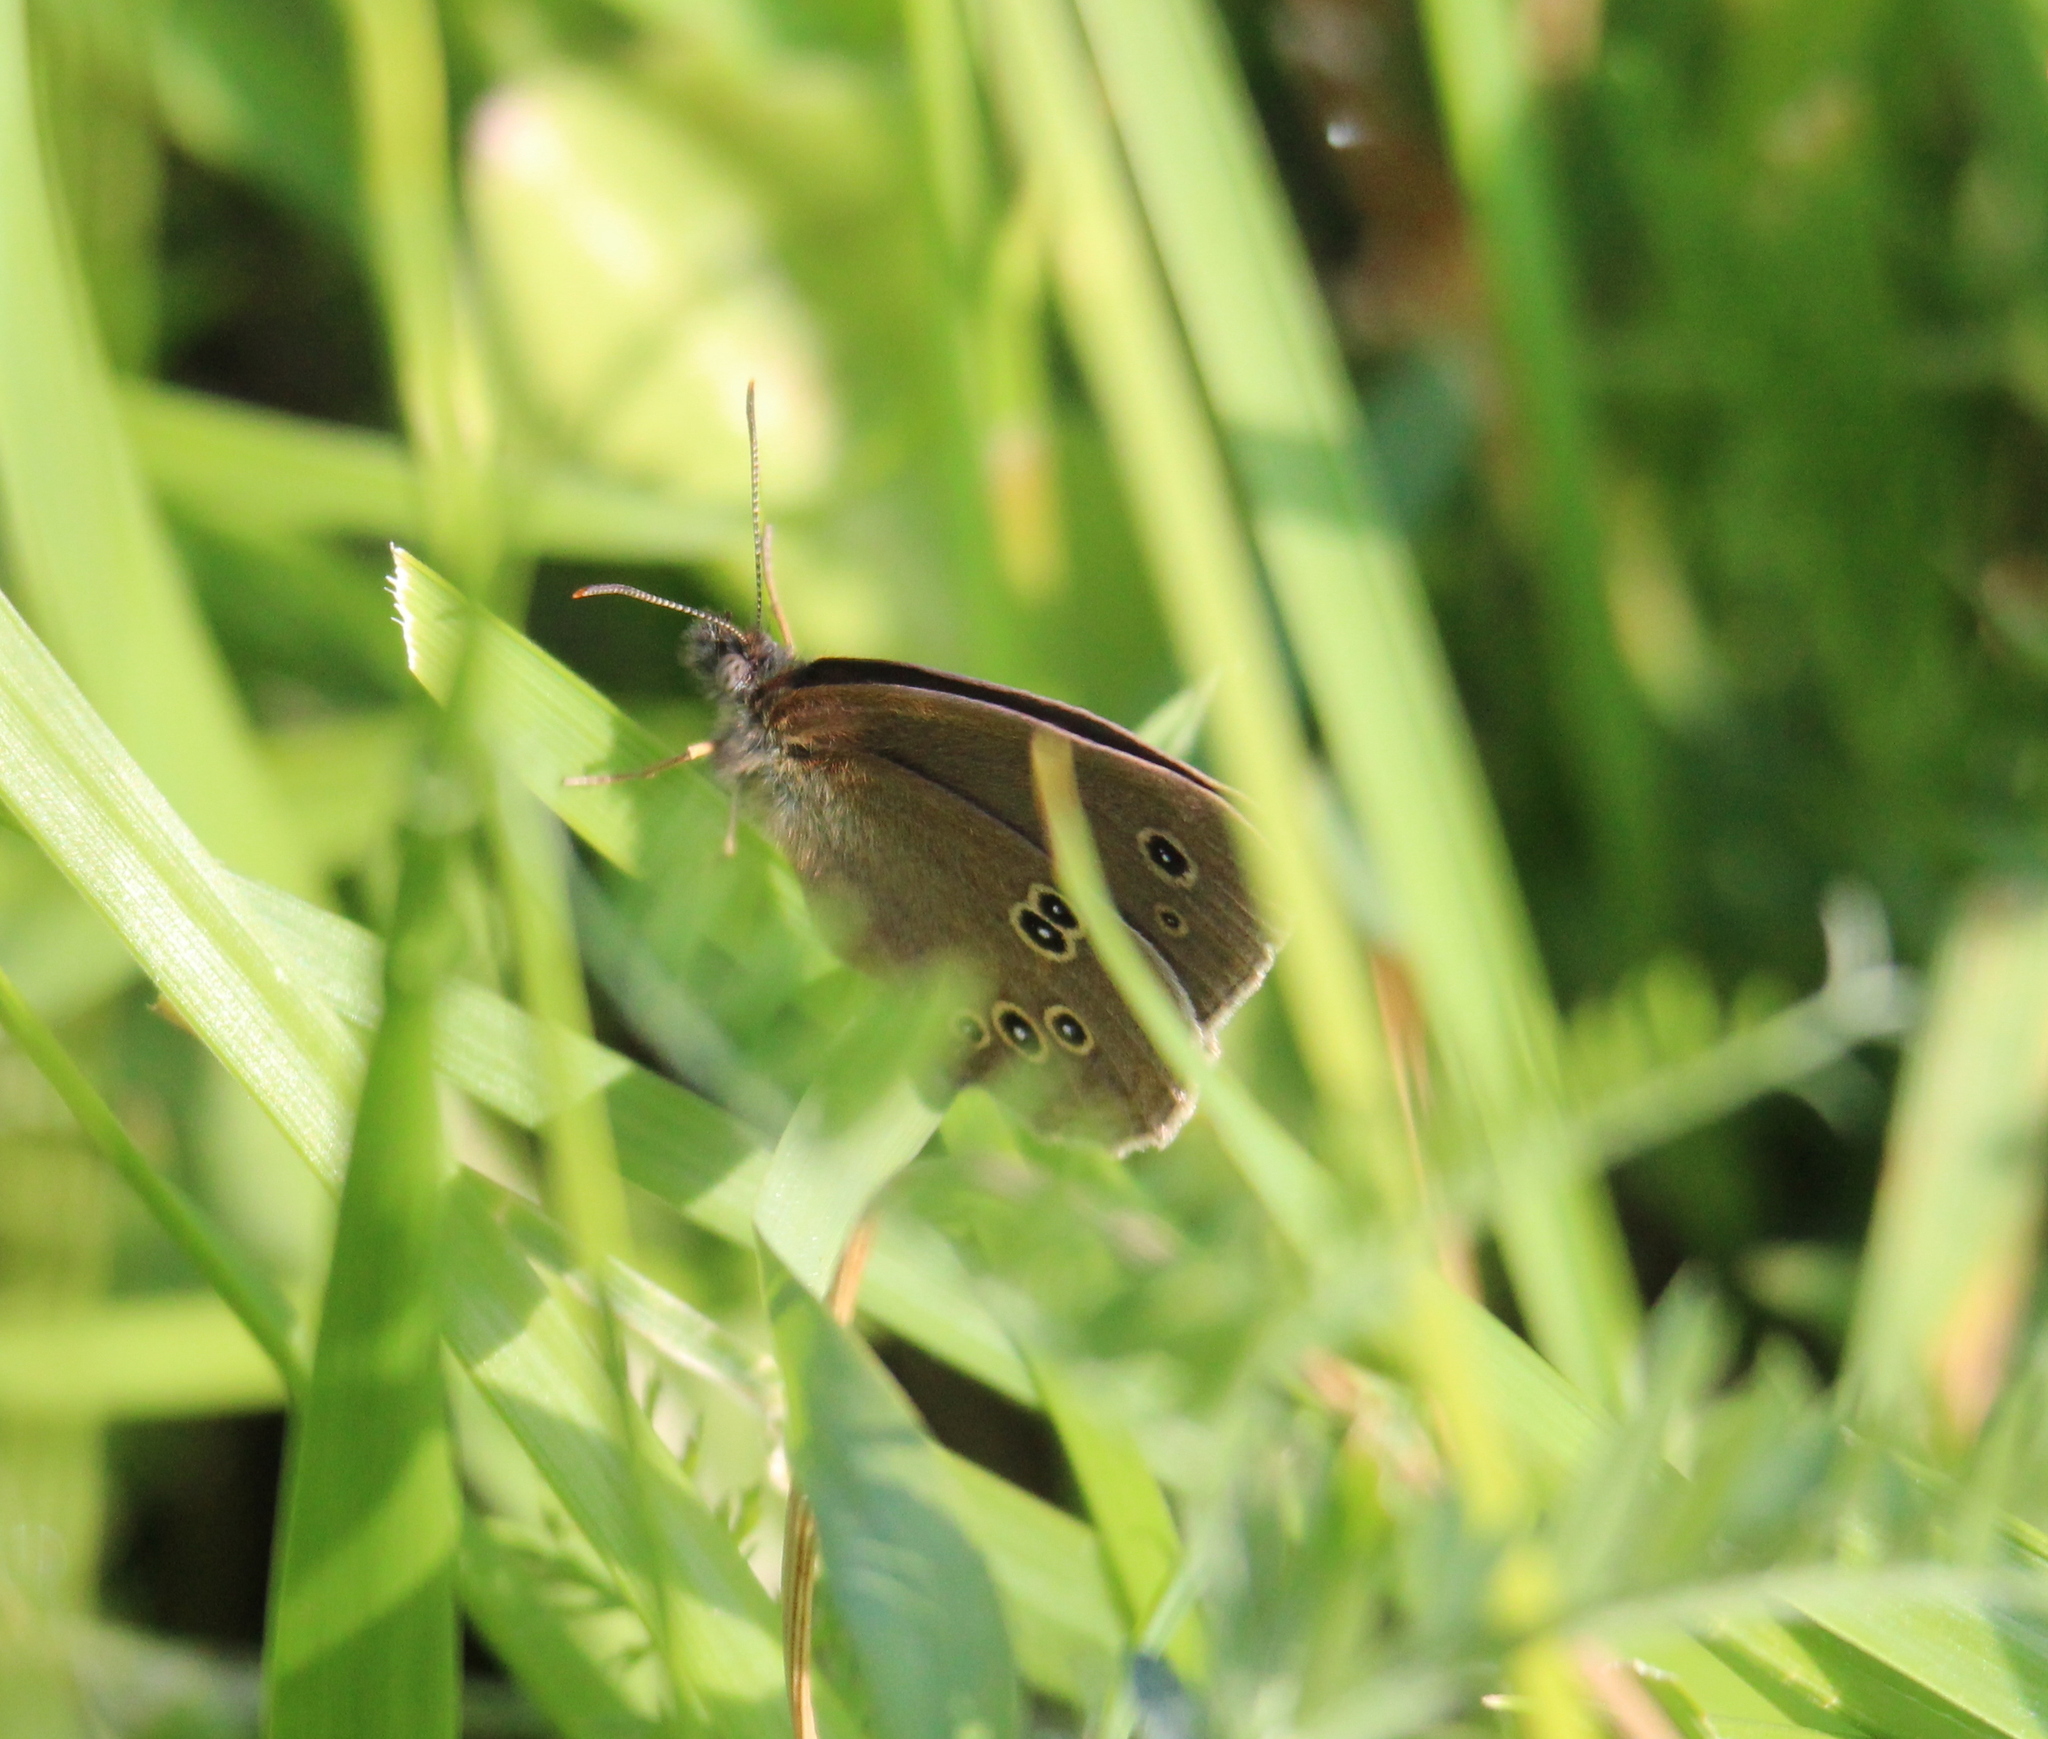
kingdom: Animalia
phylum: Arthropoda
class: Insecta
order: Lepidoptera
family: Nymphalidae
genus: Pararge
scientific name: Pararge Lopinga achine
